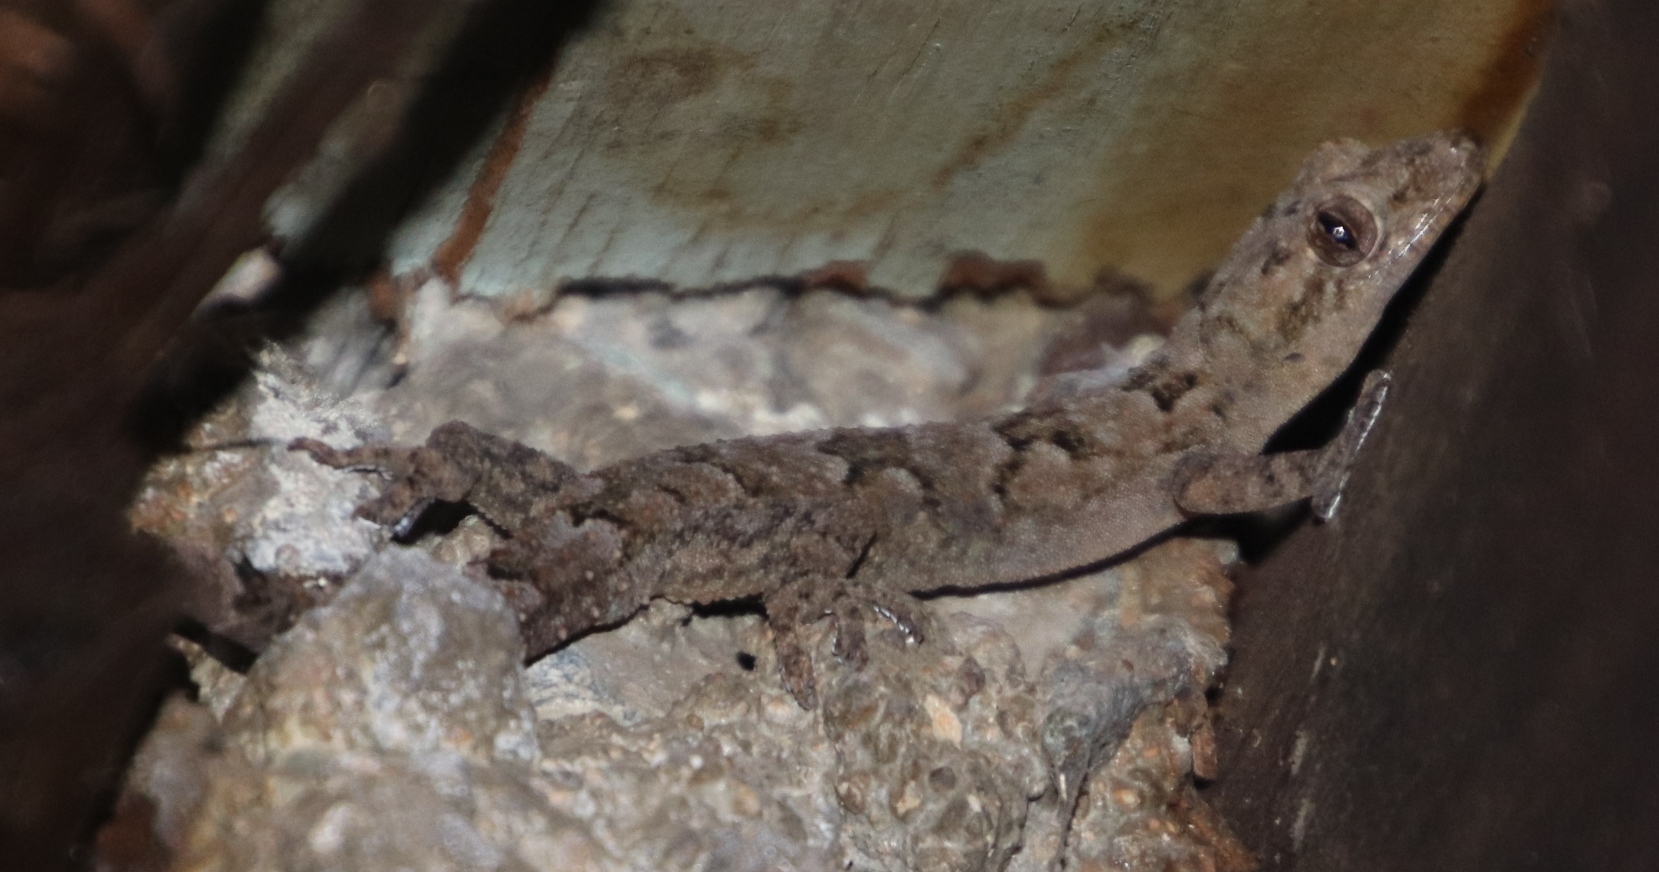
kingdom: Animalia
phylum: Chordata
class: Squamata
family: Gekkonidae
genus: Hemidactylus
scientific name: Hemidactylus mabouia
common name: House gecko
